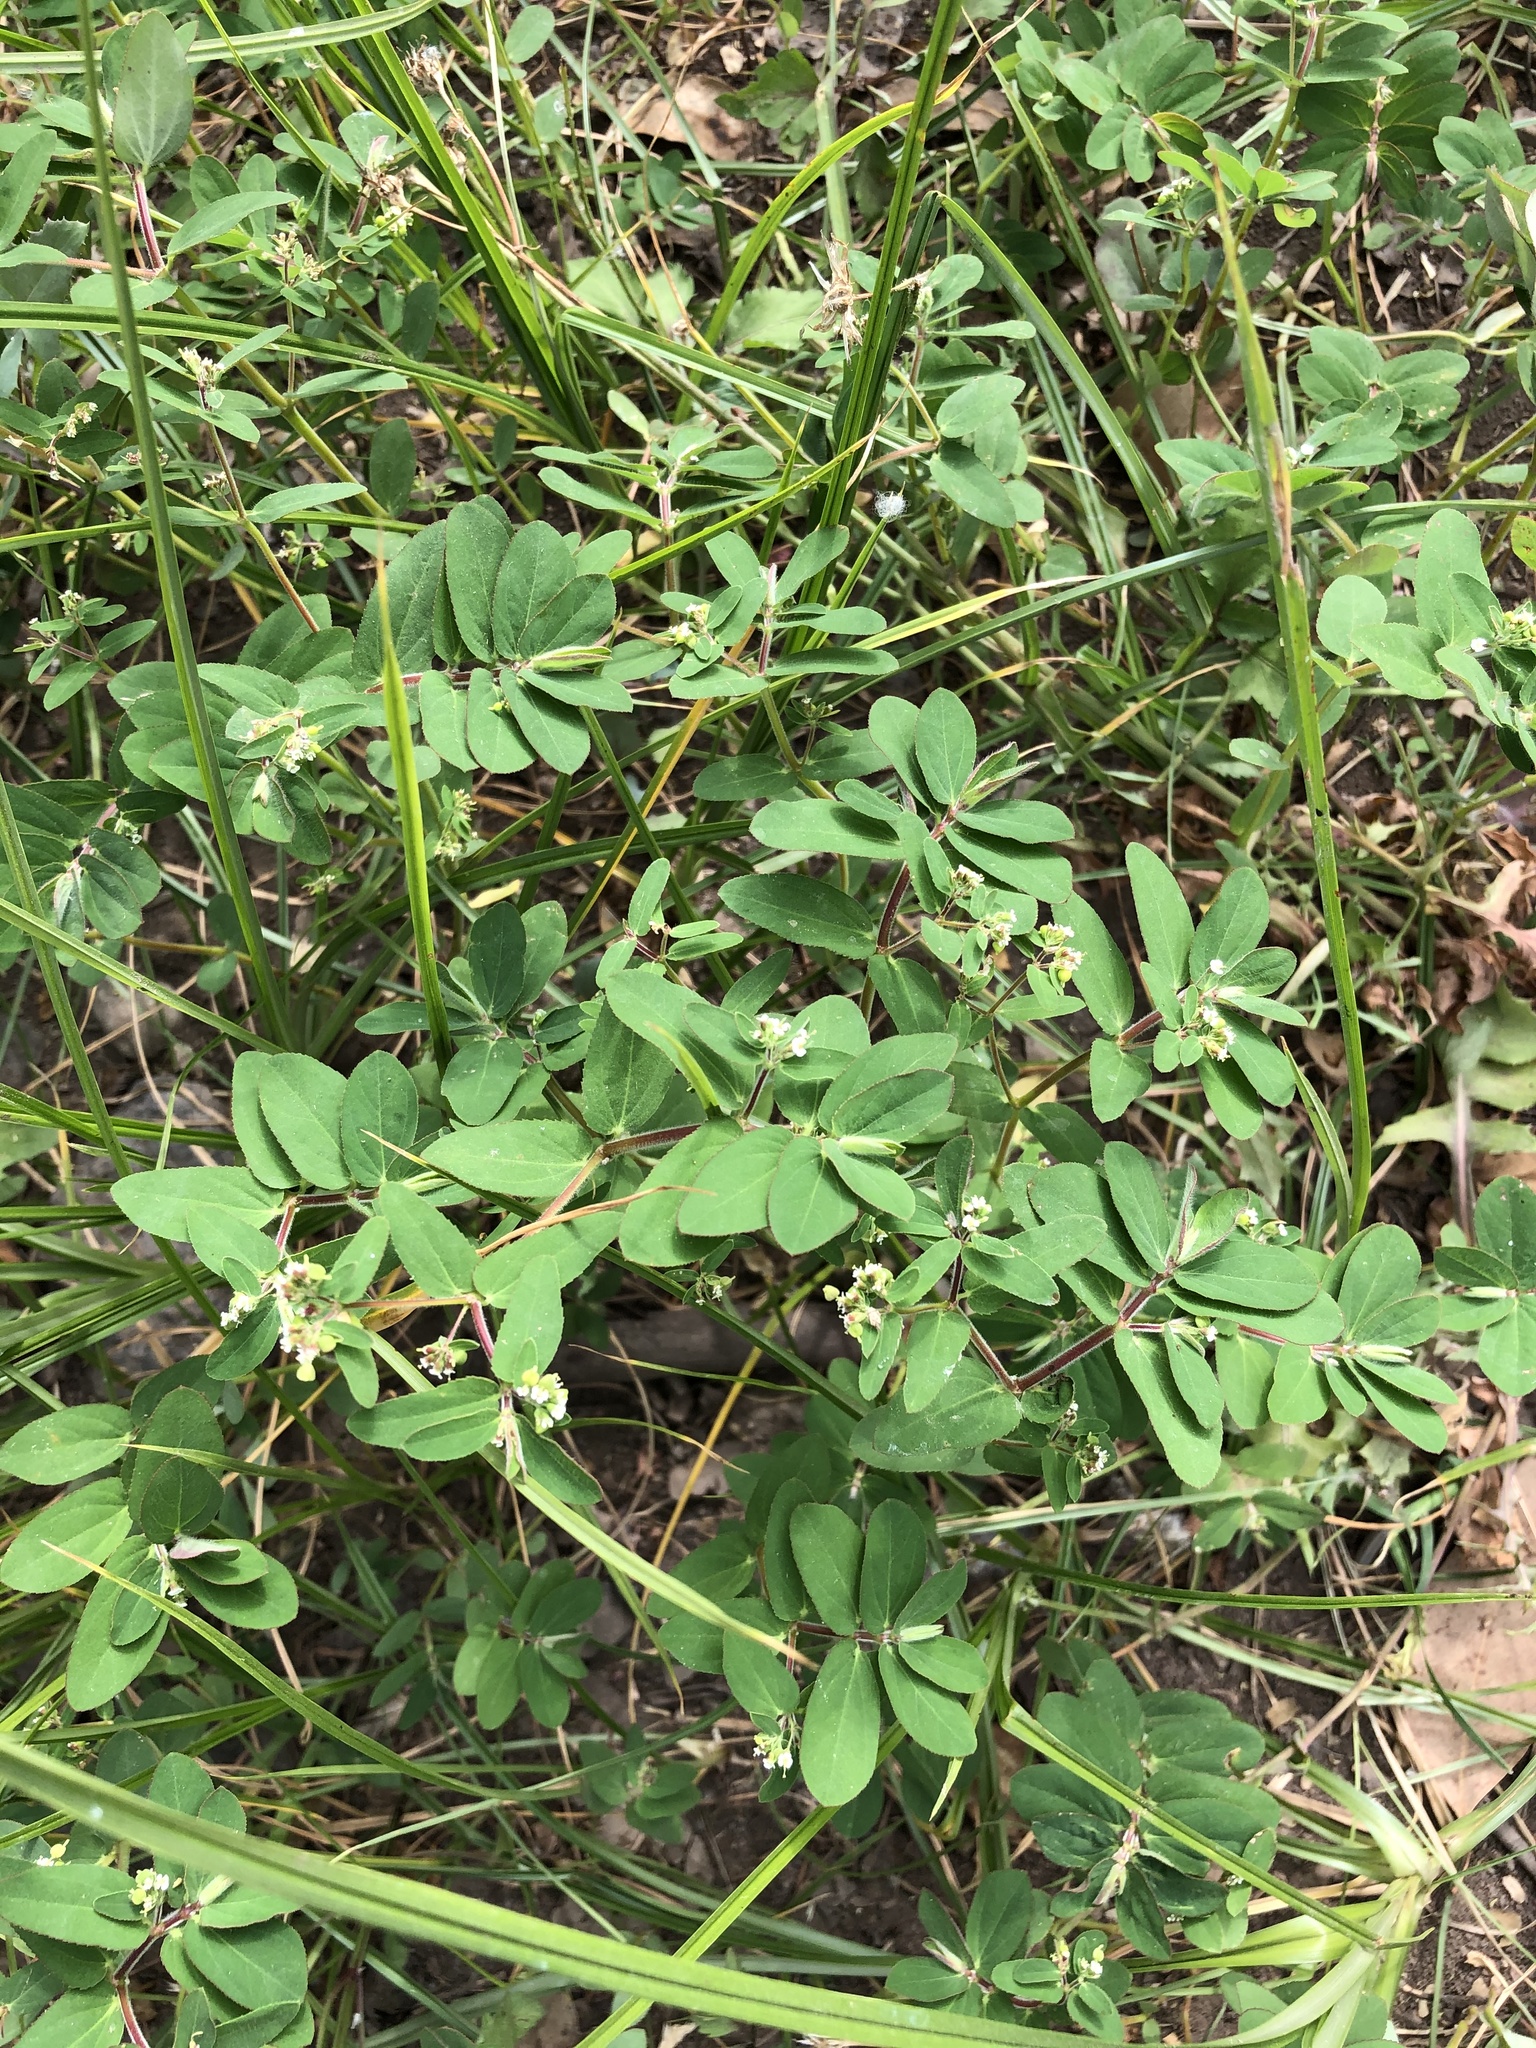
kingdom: Plantae
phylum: Tracheophyta
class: Magnoliopsida
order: Malpighiales
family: Euphorbiaceae
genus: Euphorbia
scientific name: Euphorbia lasiocarpa
